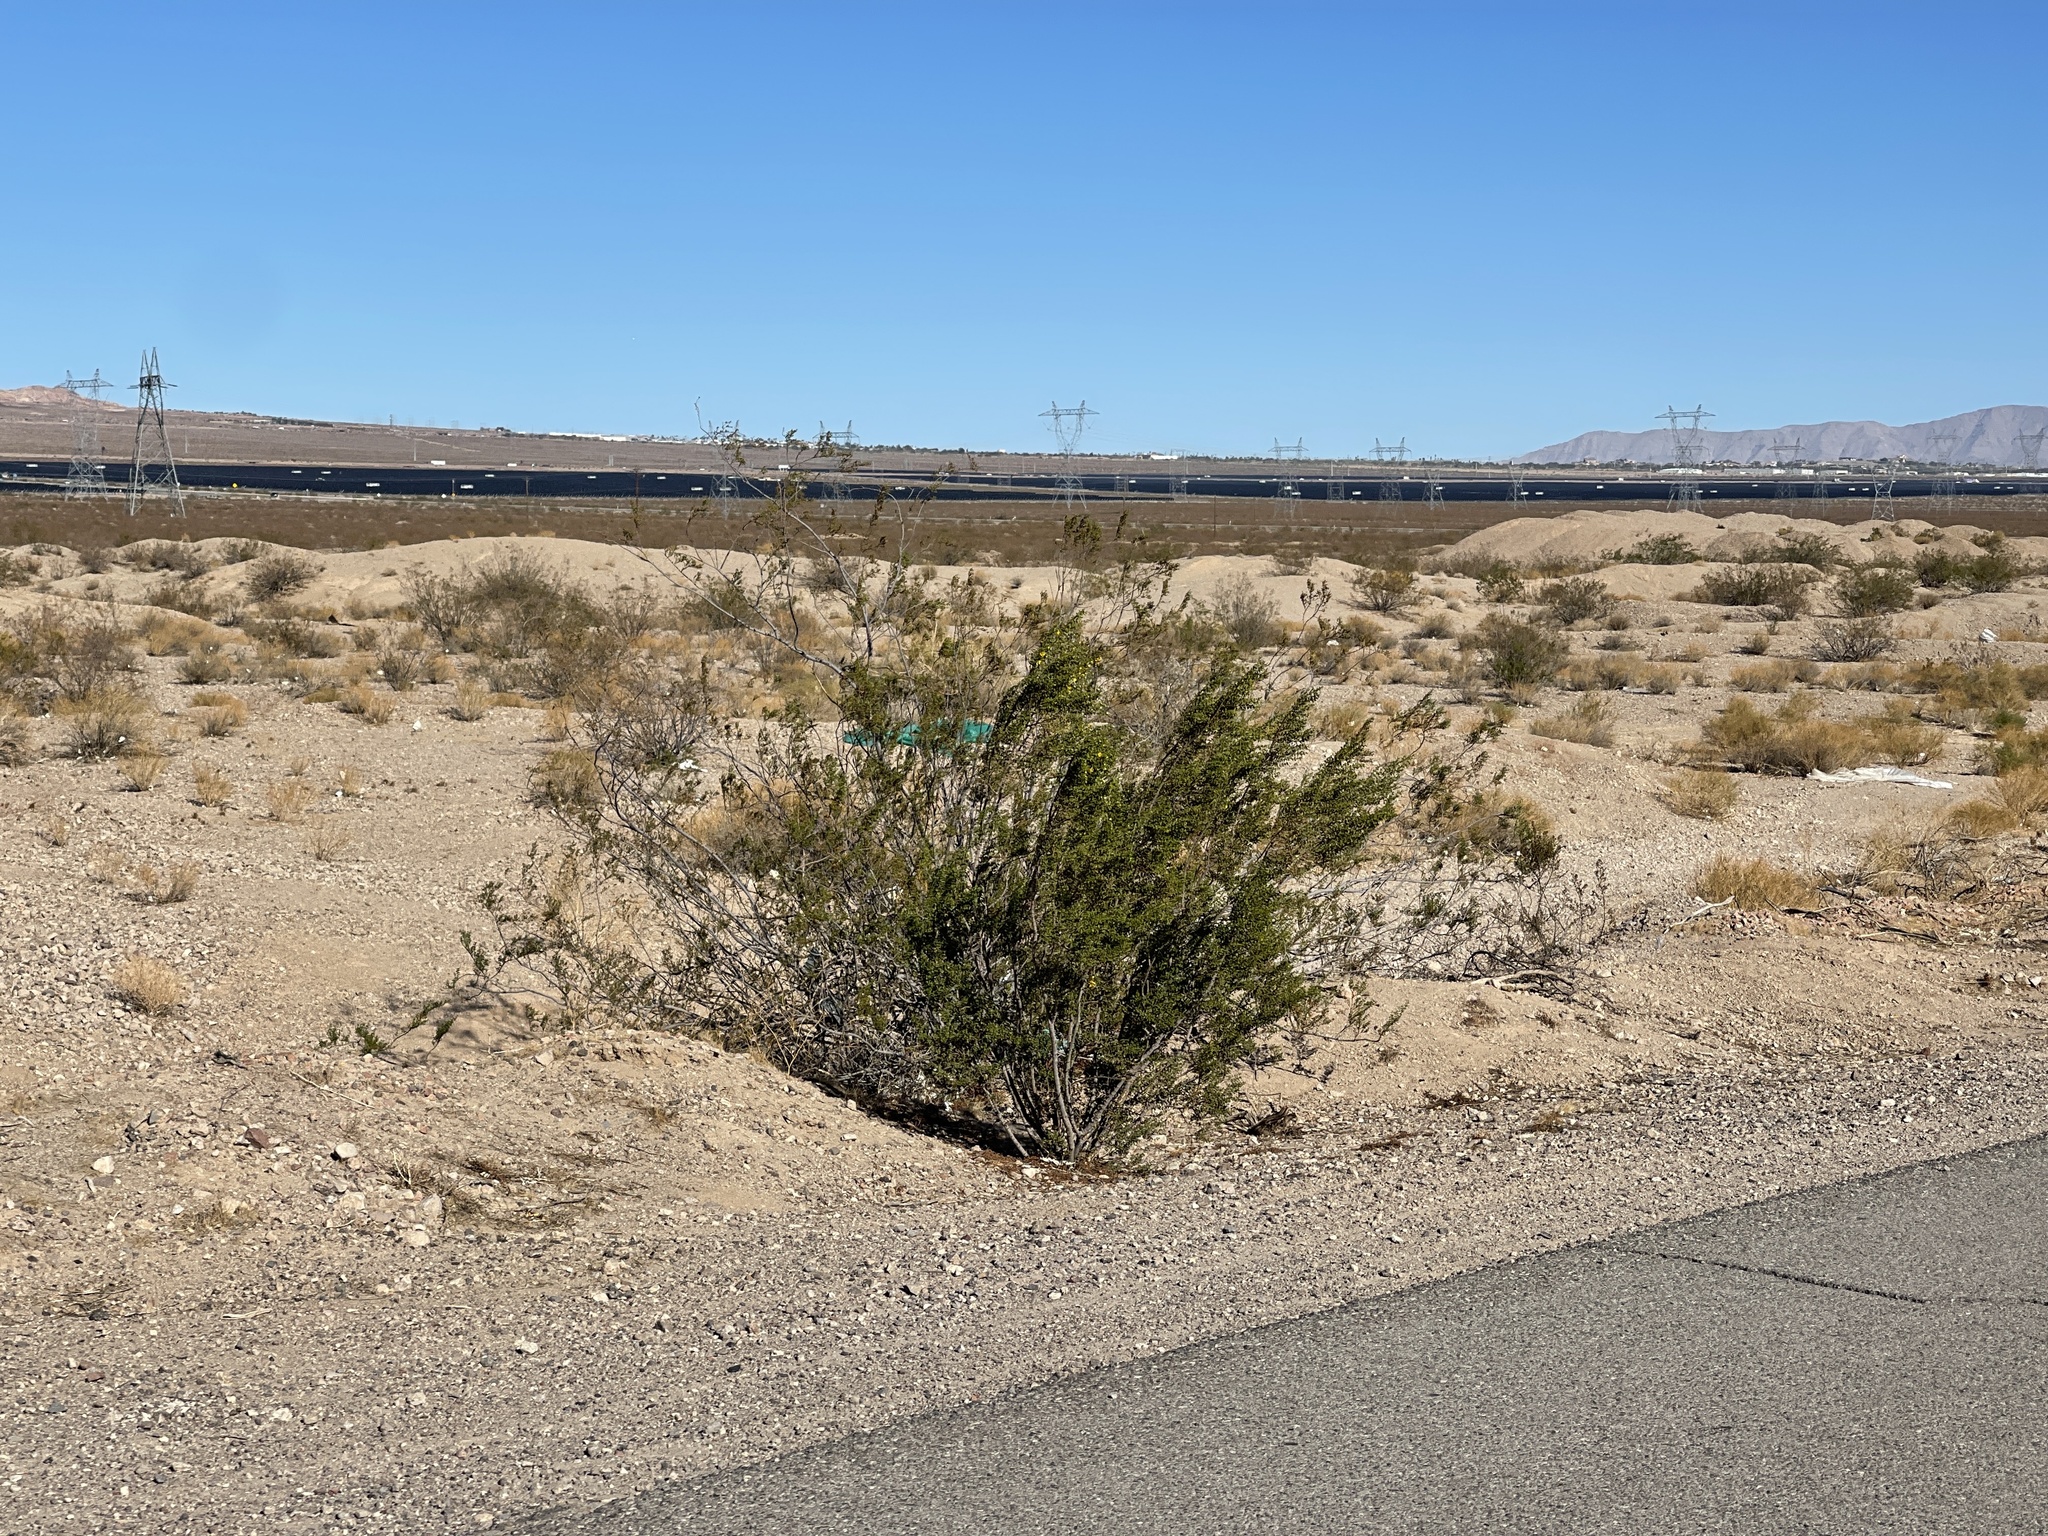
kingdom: Plantae
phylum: Tracheophyta
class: Magnoliopsida
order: Zygophyllales
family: Zygophyllaceae
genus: Larrea
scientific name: Larrea tridentata
